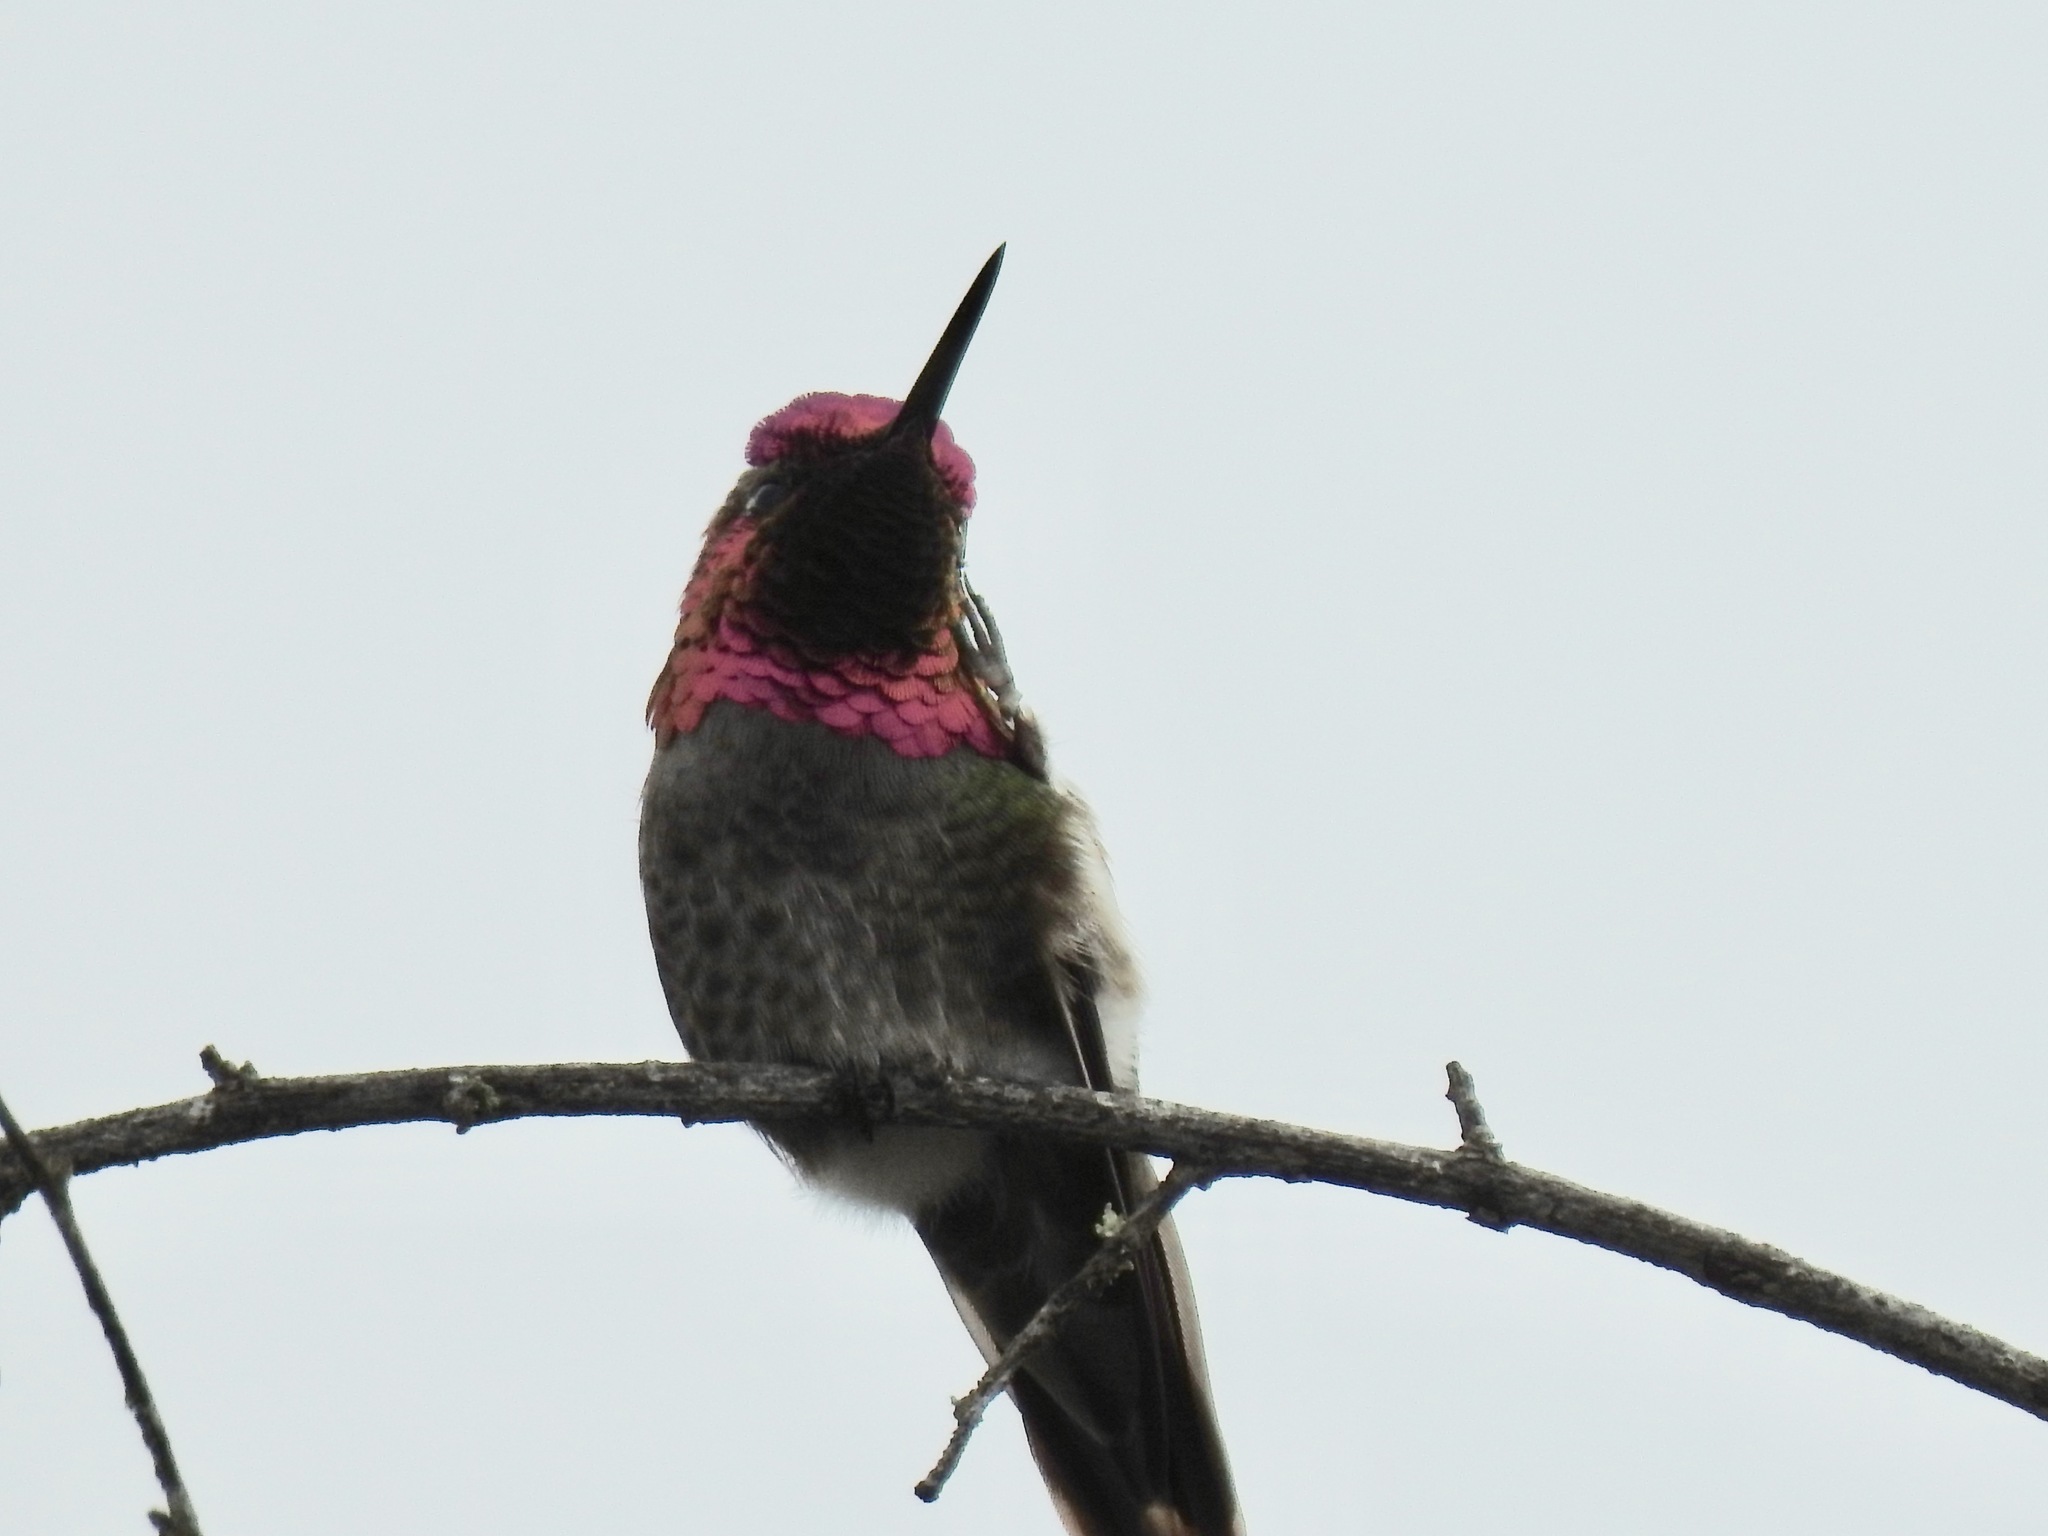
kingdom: Animalia
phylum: Chordata
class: Aves
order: Apodiformes
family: Trochilidae
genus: Calypte
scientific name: Calypte anna
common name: Anna's hummingbird
